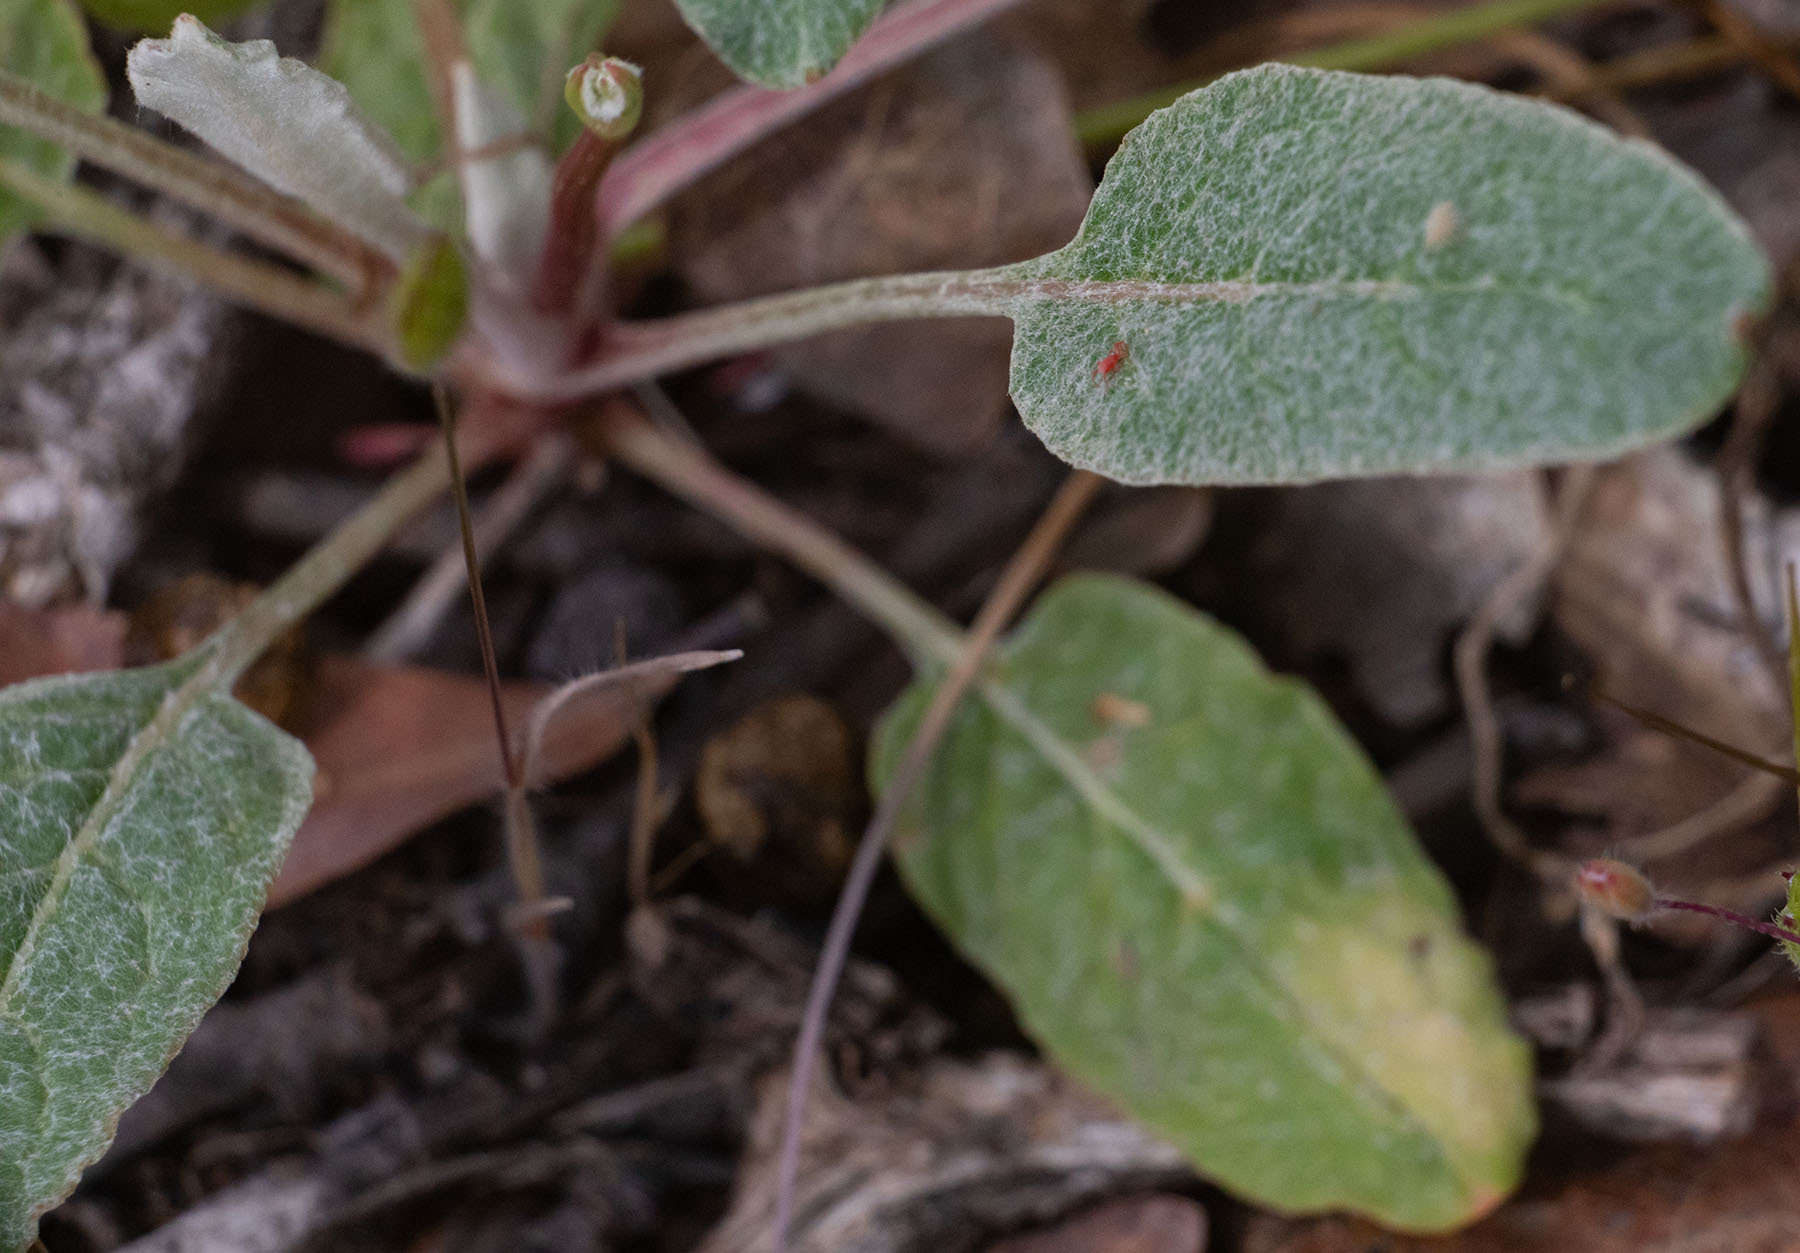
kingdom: Plantae
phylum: Tracheophyta
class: Magnoliopsida
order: Caryophyllales
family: Polygonaceae
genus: Eriogonum
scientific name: Eriogonum nudum
